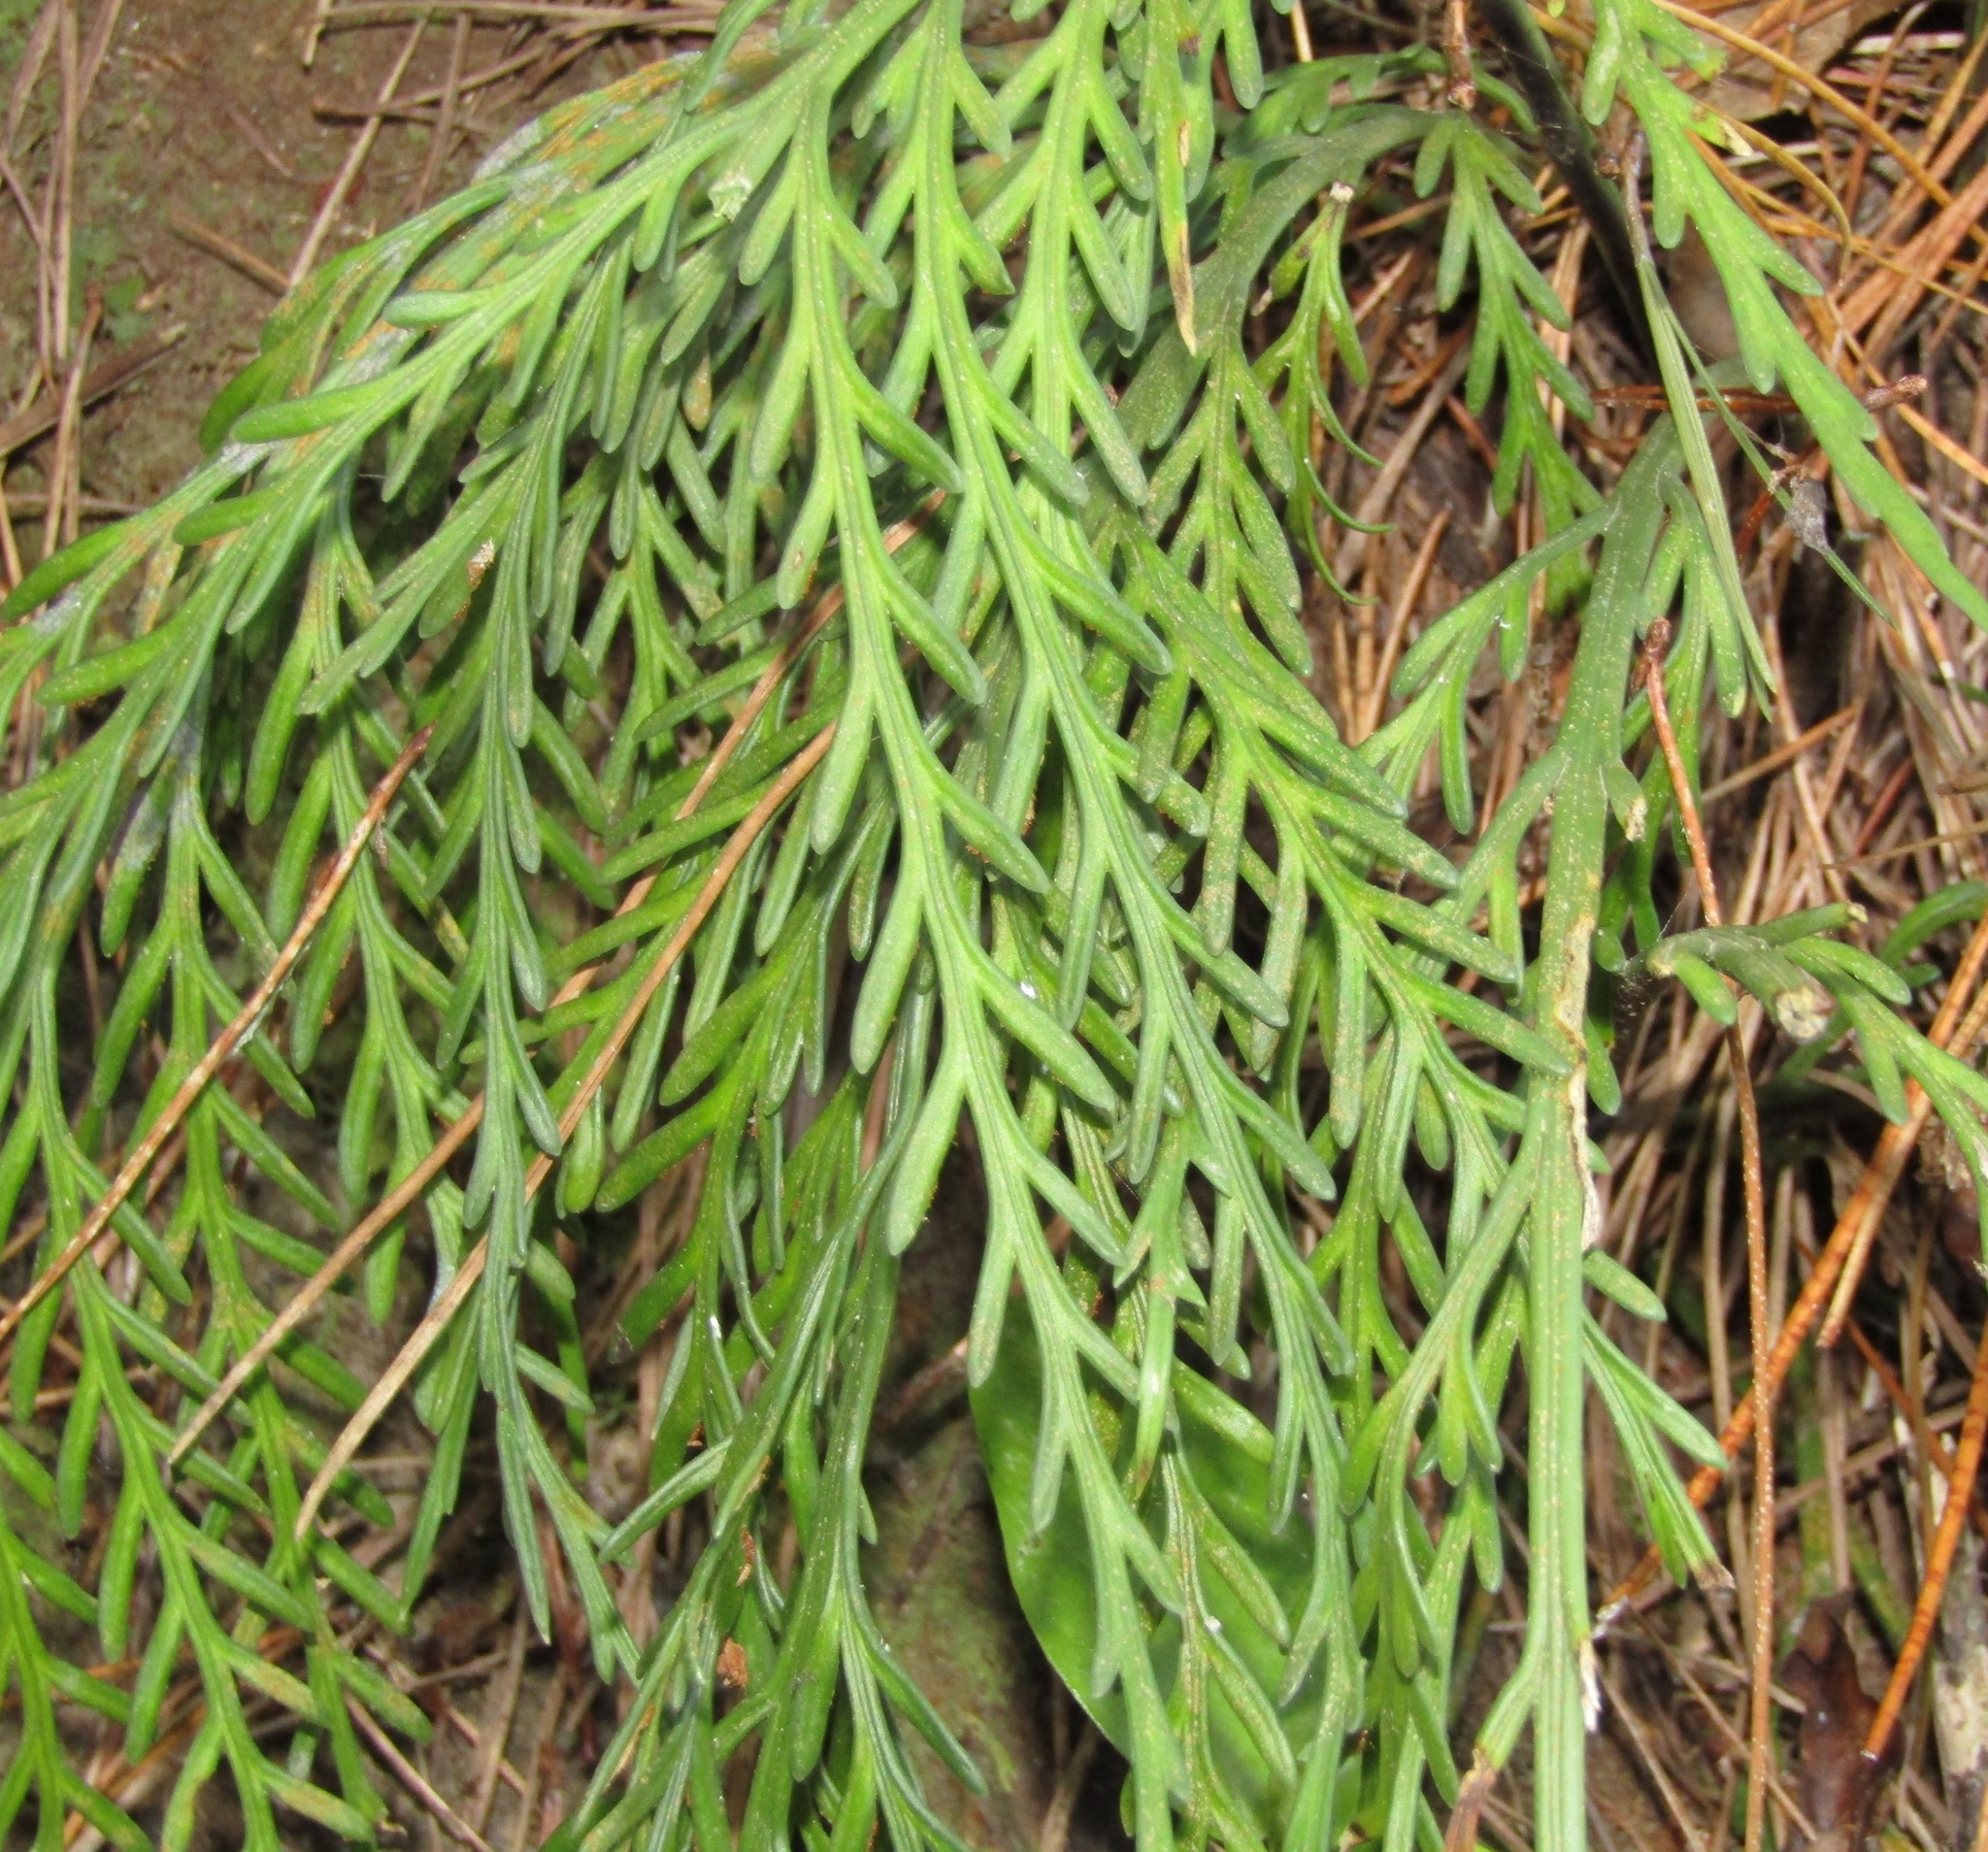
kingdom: Plantae
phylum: Tracheophyta
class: Polypodiopsida
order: Polypodiales
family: Aspleniaceae
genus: Asplenium
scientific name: Asplenium flaccidum
